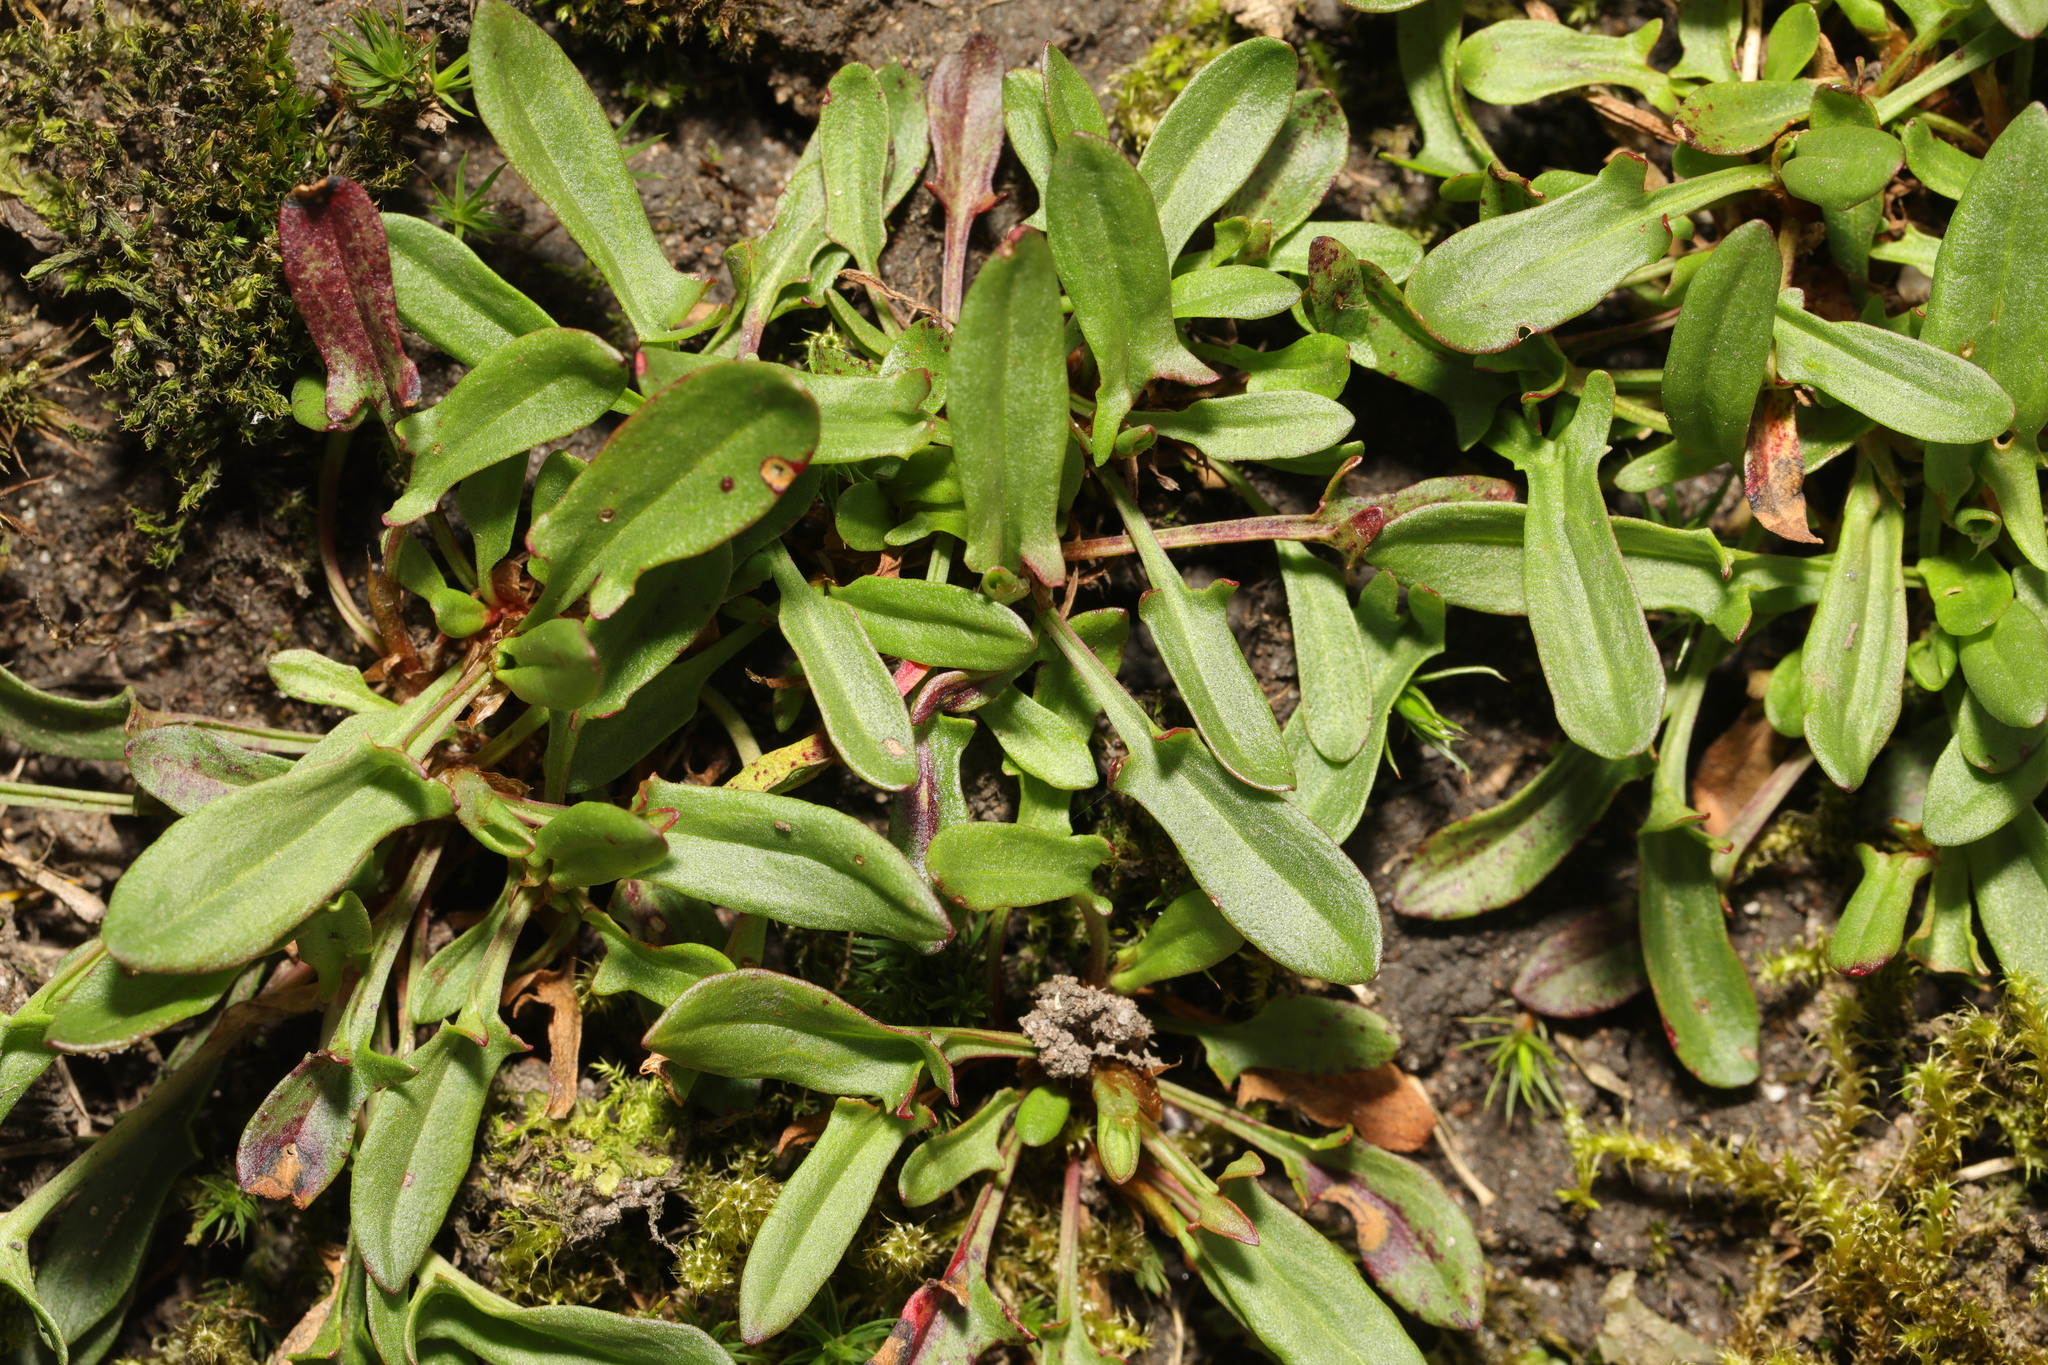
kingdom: Plantae
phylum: Tracheophyta
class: Magnoliopsida
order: Caryophyllales
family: Polygonaceae
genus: Rumex
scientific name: Rumex acetosella
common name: Common sheep sorrel
